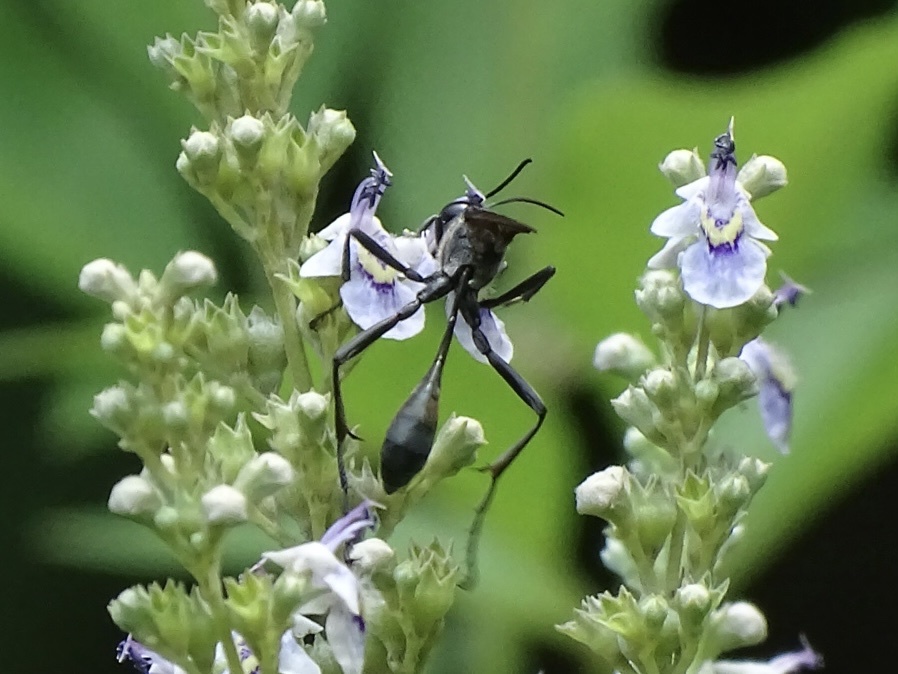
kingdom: Animalia
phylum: Arthropoda
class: Insecta
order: Hymenoptera
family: Sphecidae
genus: Ammophila
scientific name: Ammophila clavus
